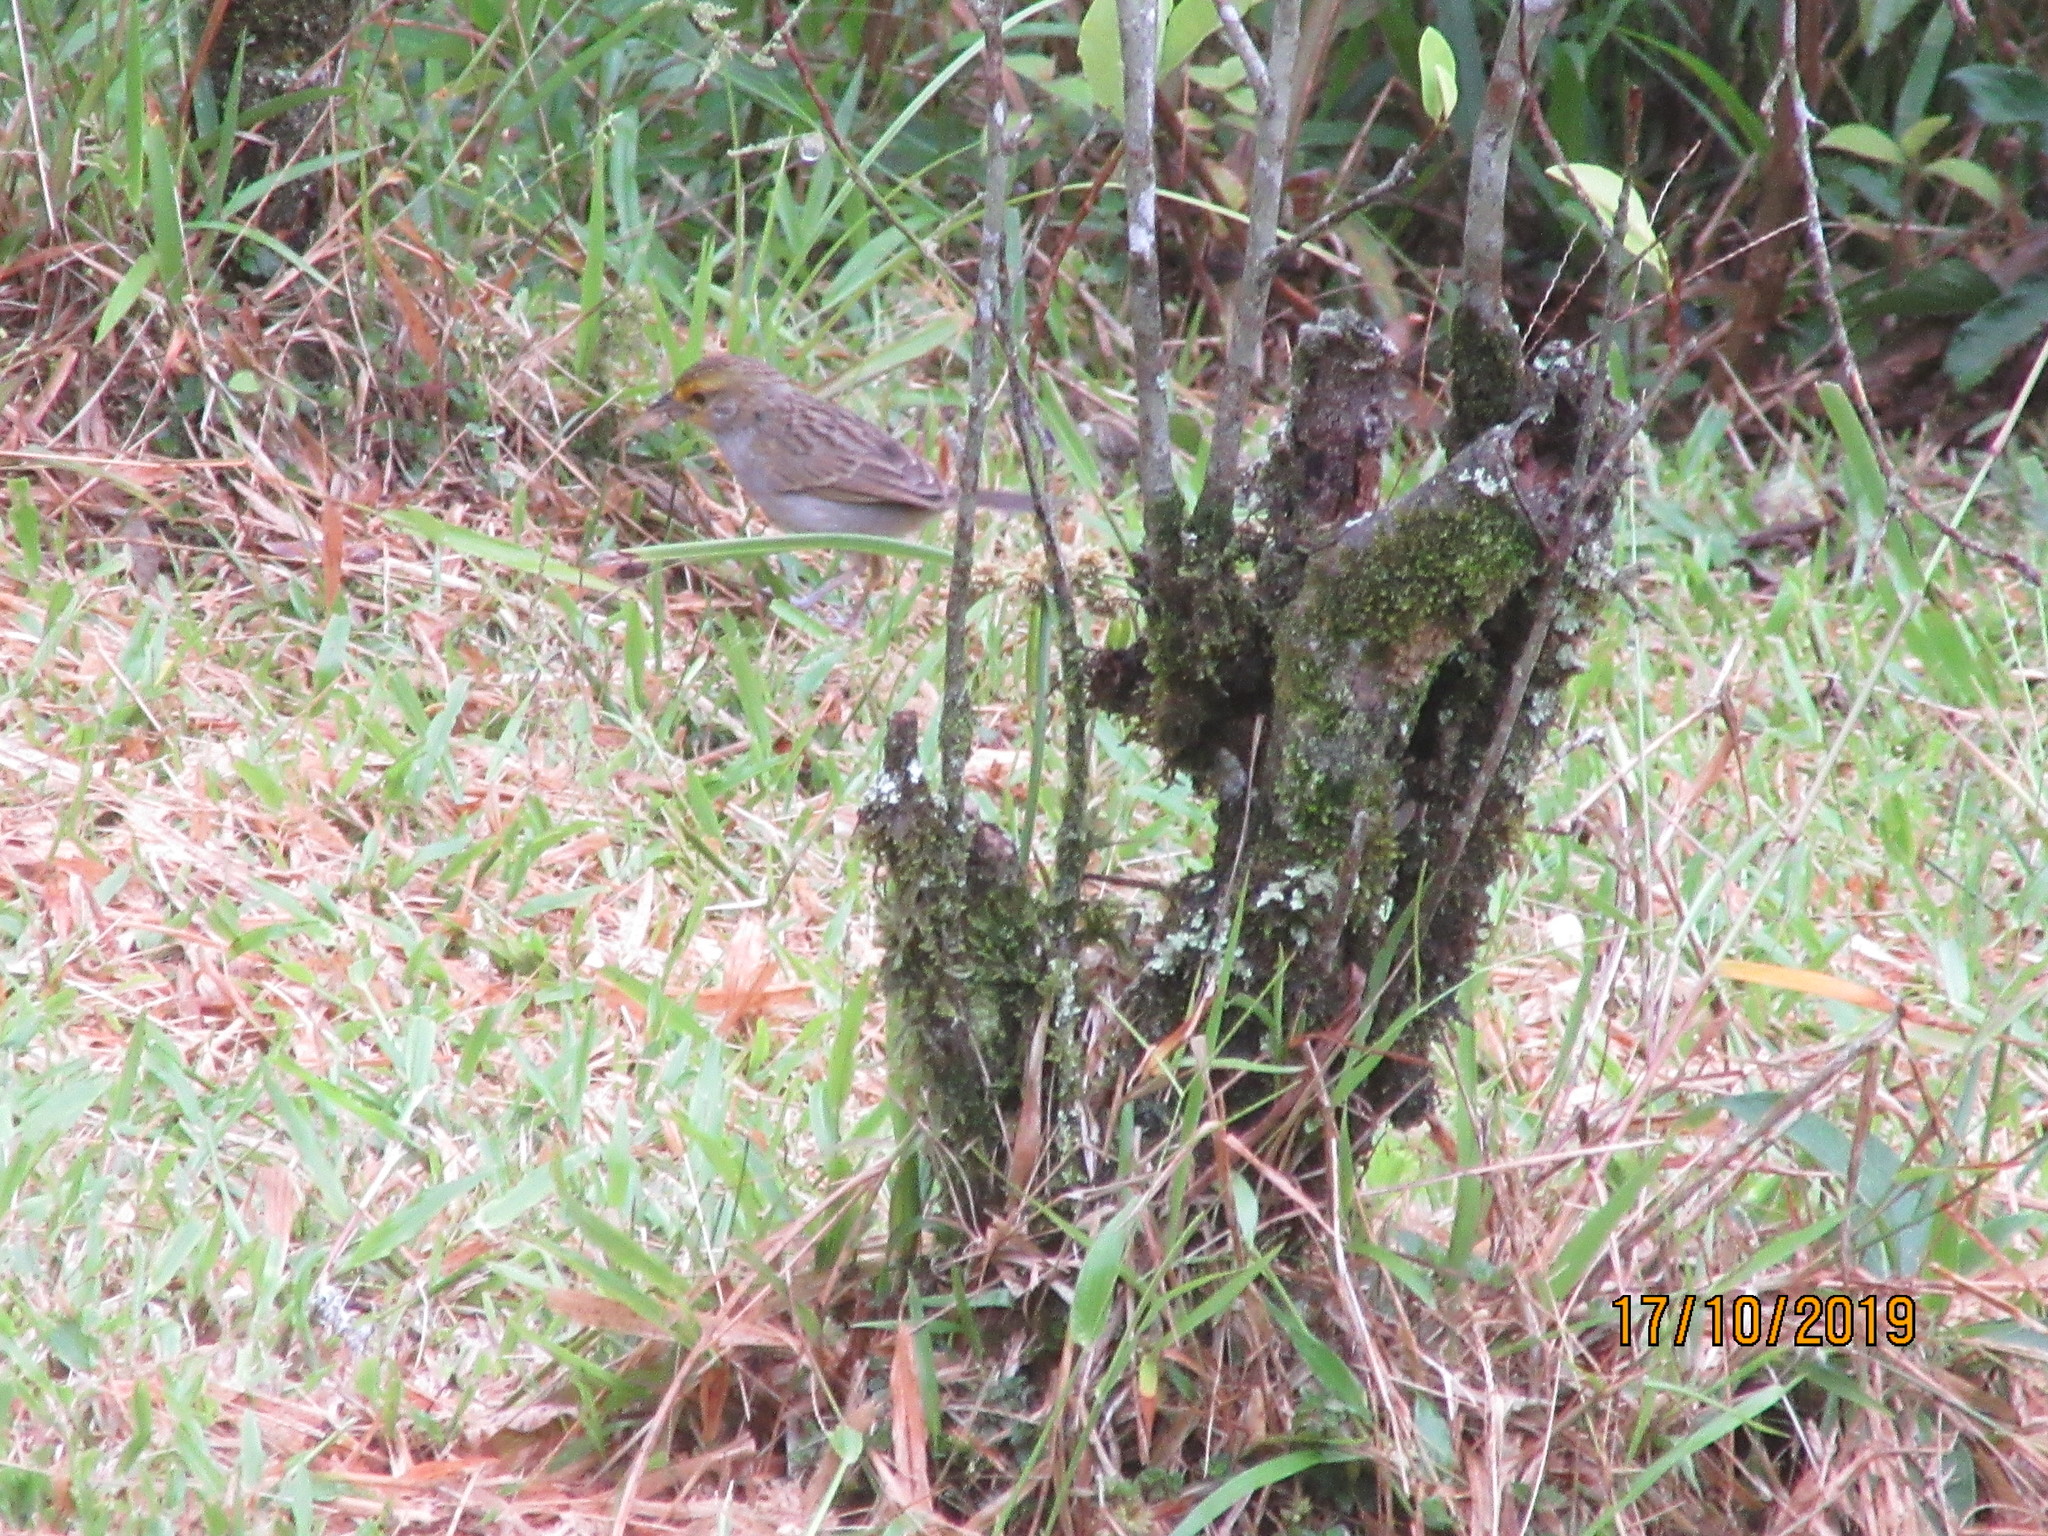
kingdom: Animalia
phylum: Chordata
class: Aves
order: Passeriformes
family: Passerellidae
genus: Ammodramus
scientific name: Ammodramus aurifrons
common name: Yellow-browed sparrow
